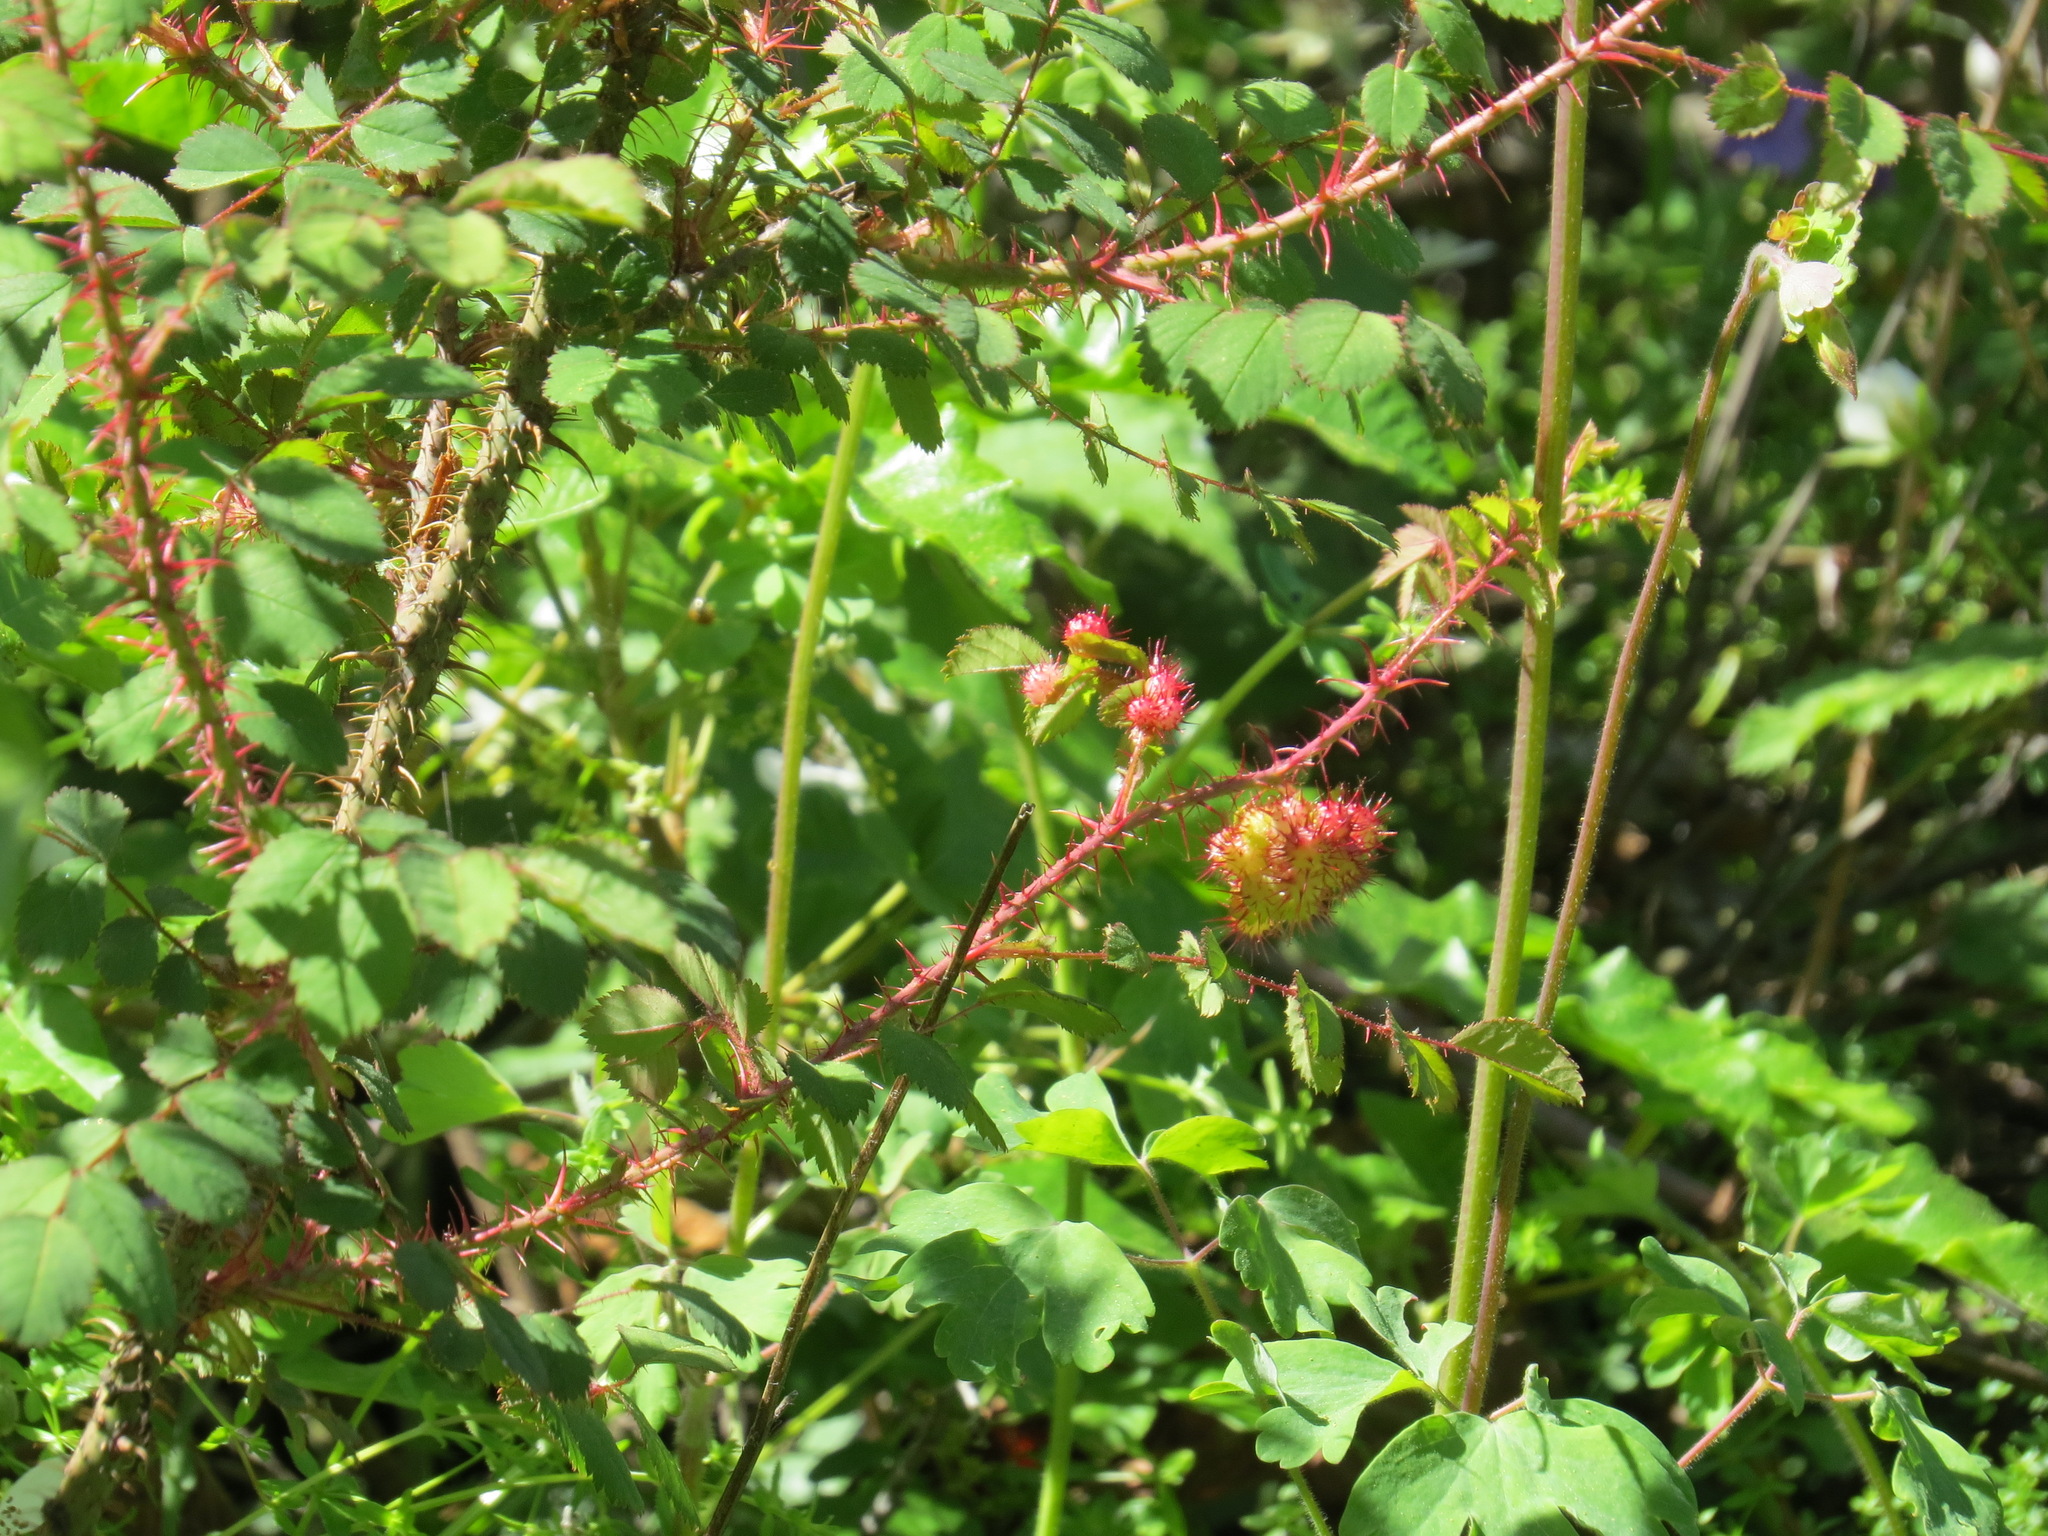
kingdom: Animalia
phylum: Arthropoda
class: Insecta
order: Hymenoptera
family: Cynipidae
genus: Diplolepis
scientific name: Diplolepis polita
